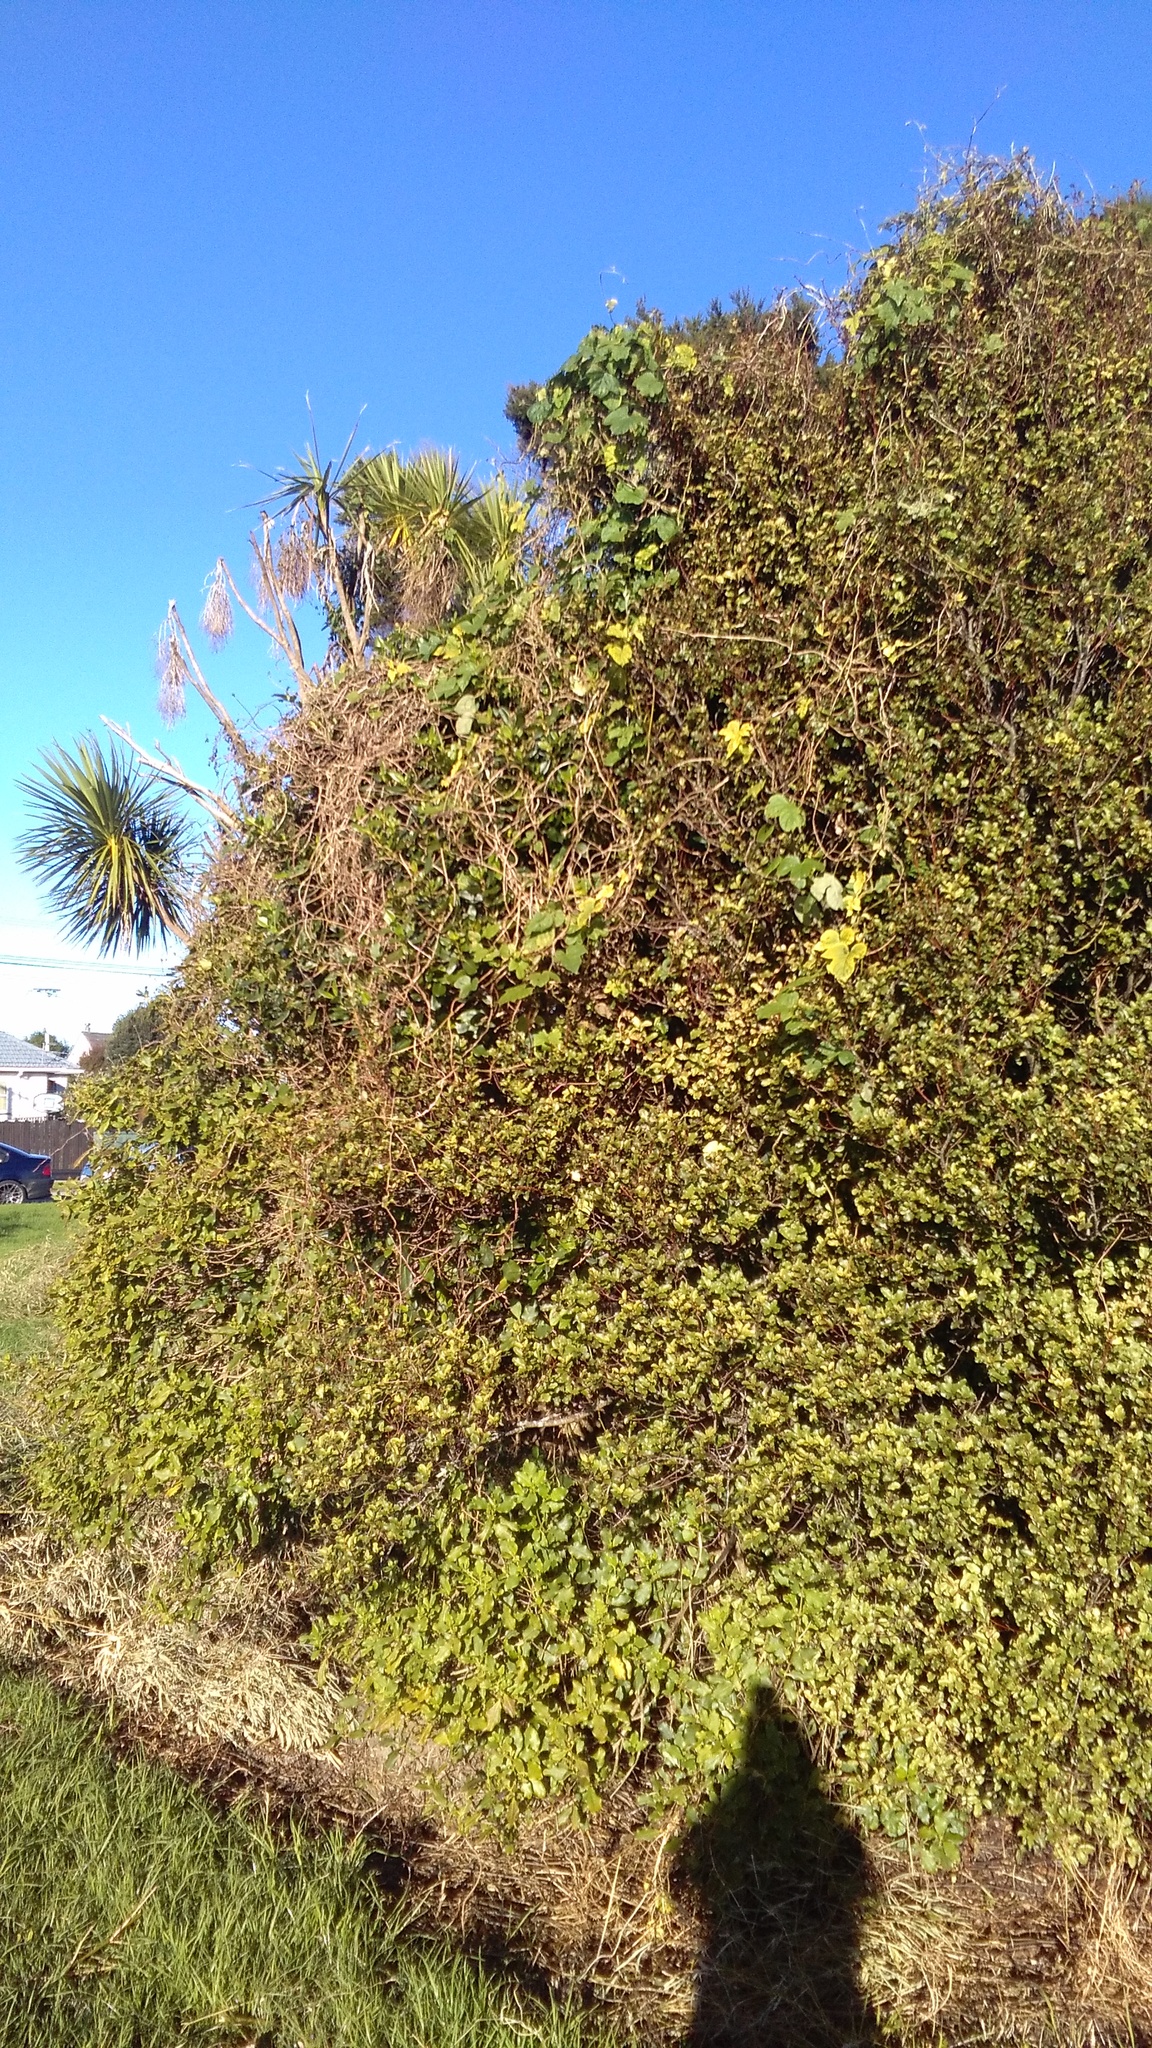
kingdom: Plantae
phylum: Tracheophyta
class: Magnoliopsida
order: Solanales
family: Convolvulaceae
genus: Ipomoea
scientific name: Ipomoea indica
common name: Blue dawnflower
